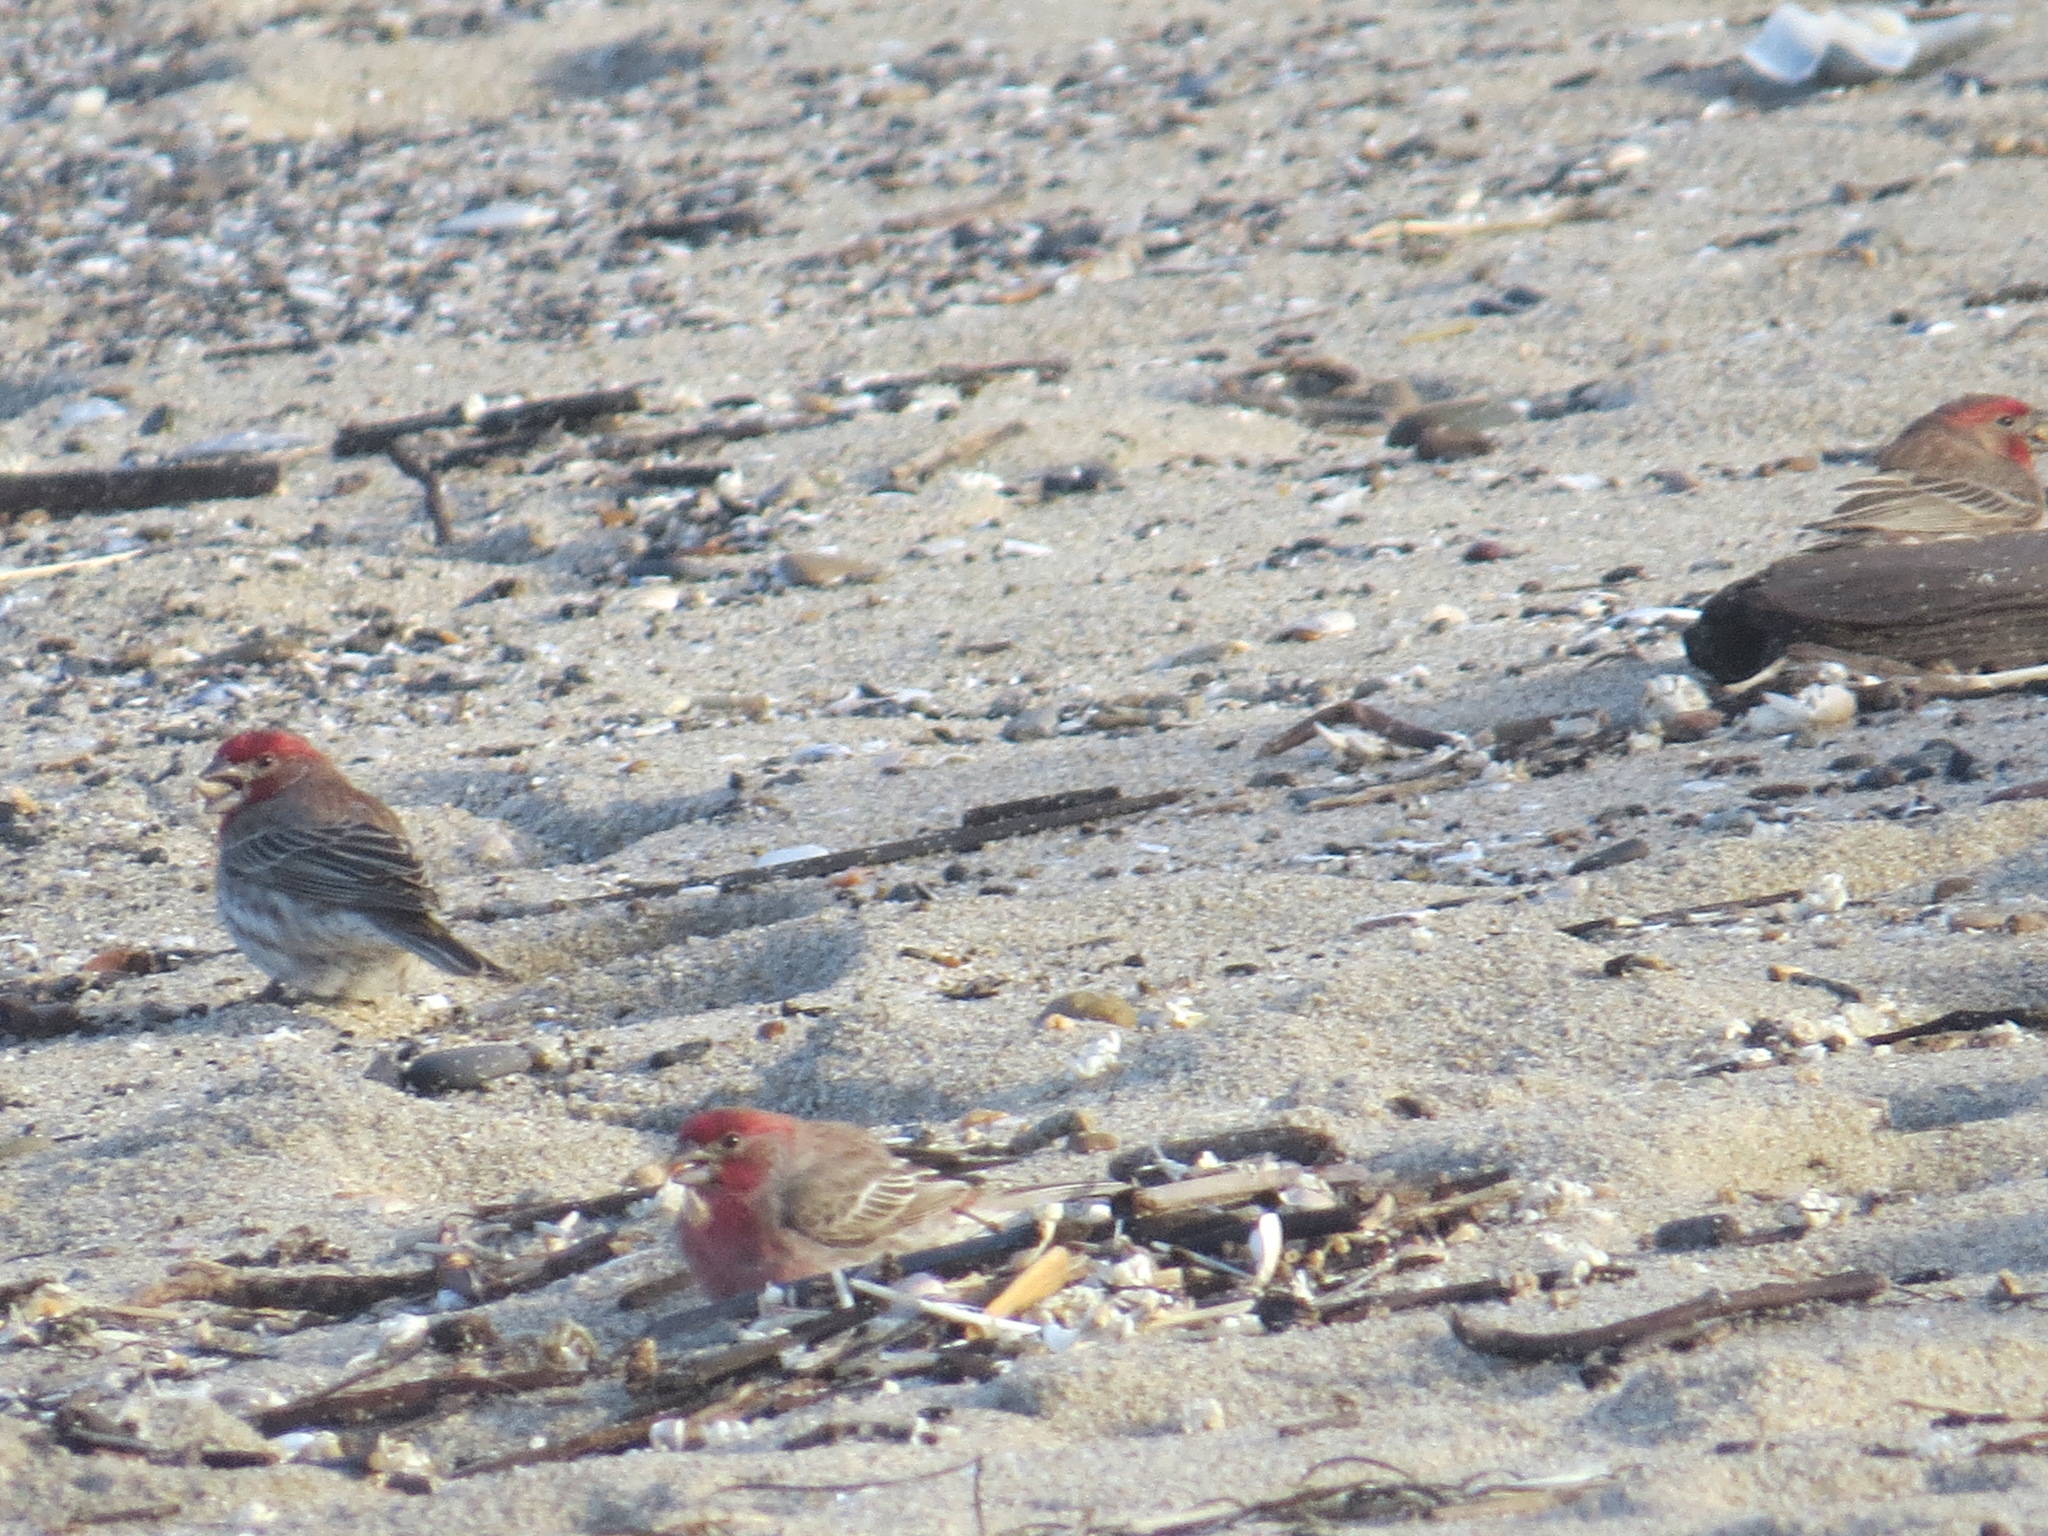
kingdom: Animalia
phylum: Chordata
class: Aves
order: Passeriformes
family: Fringillidae
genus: Haemorhous
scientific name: Haemorhous mexicanus
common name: House finch
